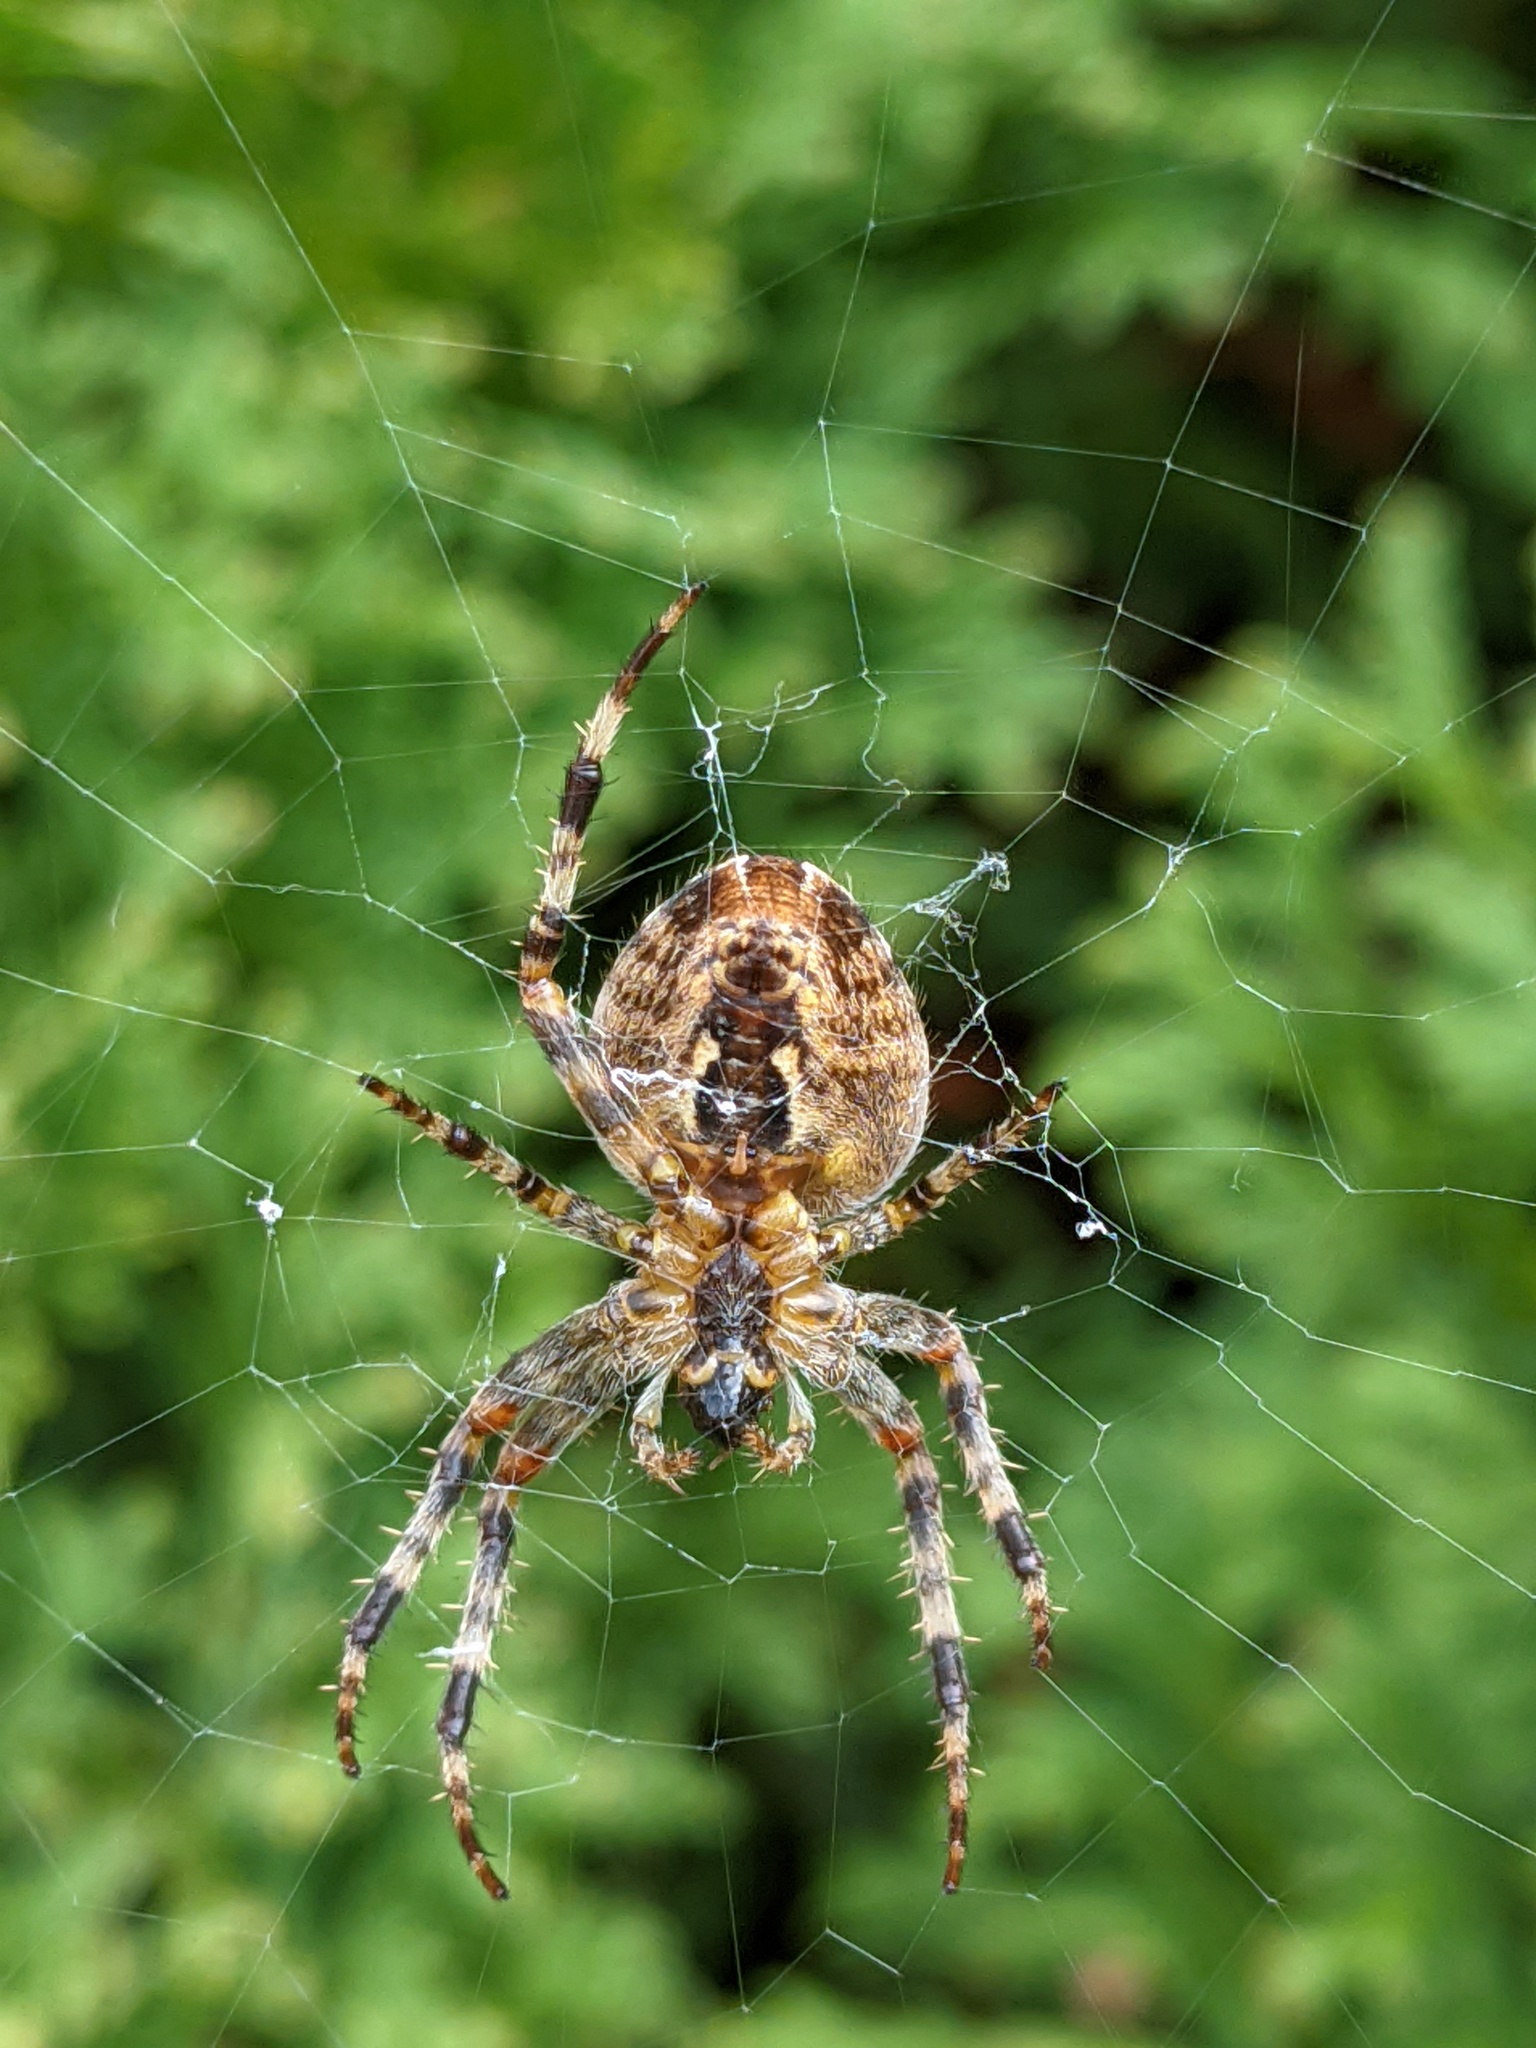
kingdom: Animalia
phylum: Arthropoda
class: Arachnida
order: Araneae
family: Araneidae
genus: Araneus
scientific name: Araneus diadematus
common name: Cross orbweaver
